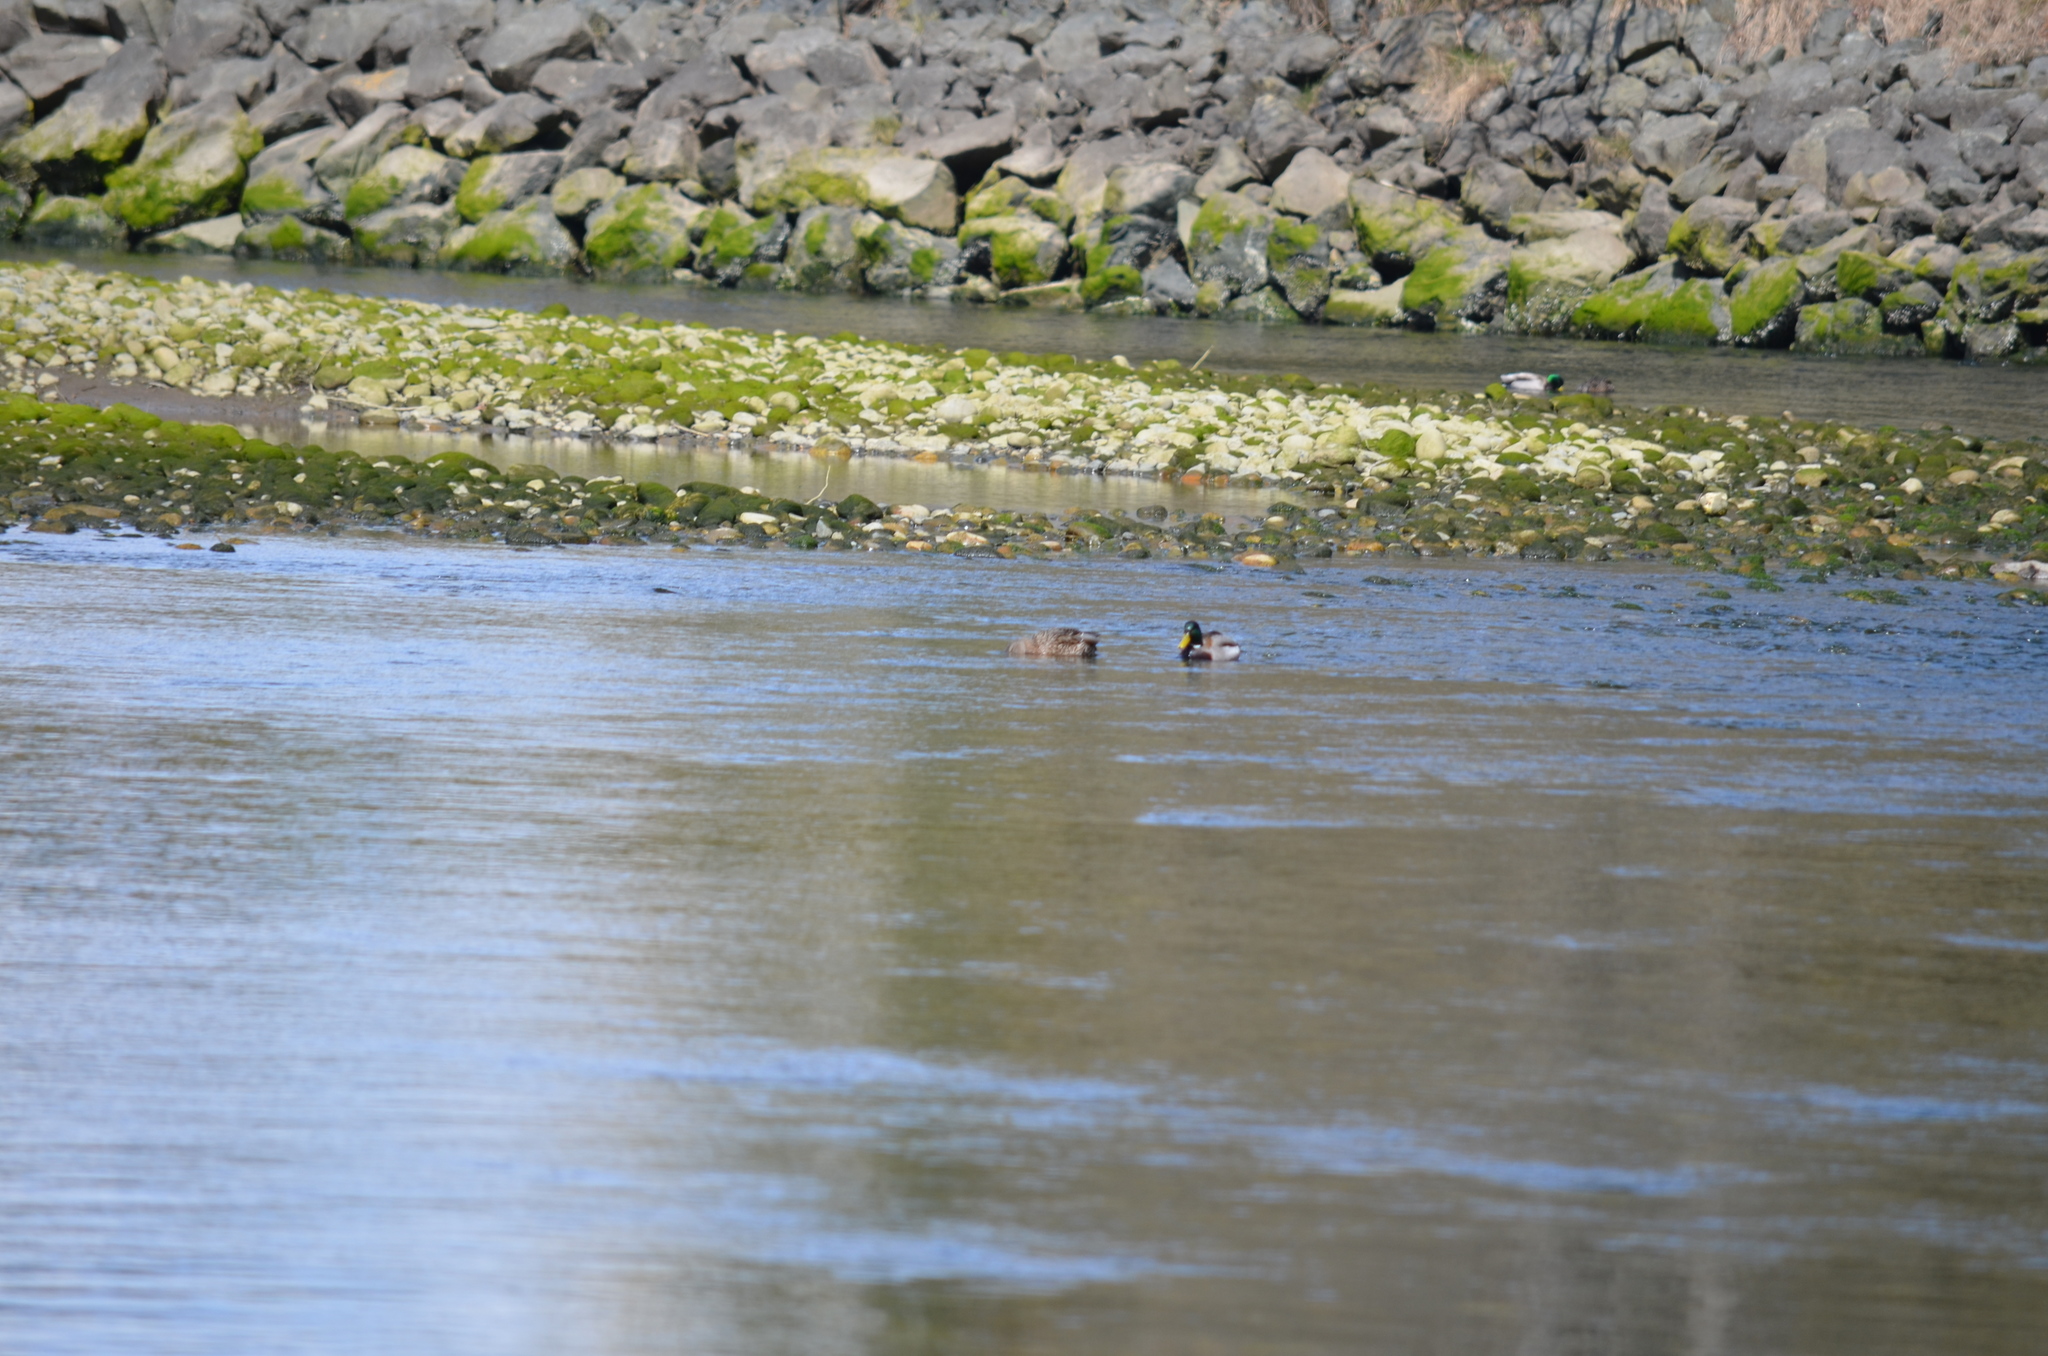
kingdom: Animalia
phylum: Chordata
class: Aves
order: Anseriformes
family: Anatidae
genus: Anas
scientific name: Anas platyrhynchos
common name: Mallard
